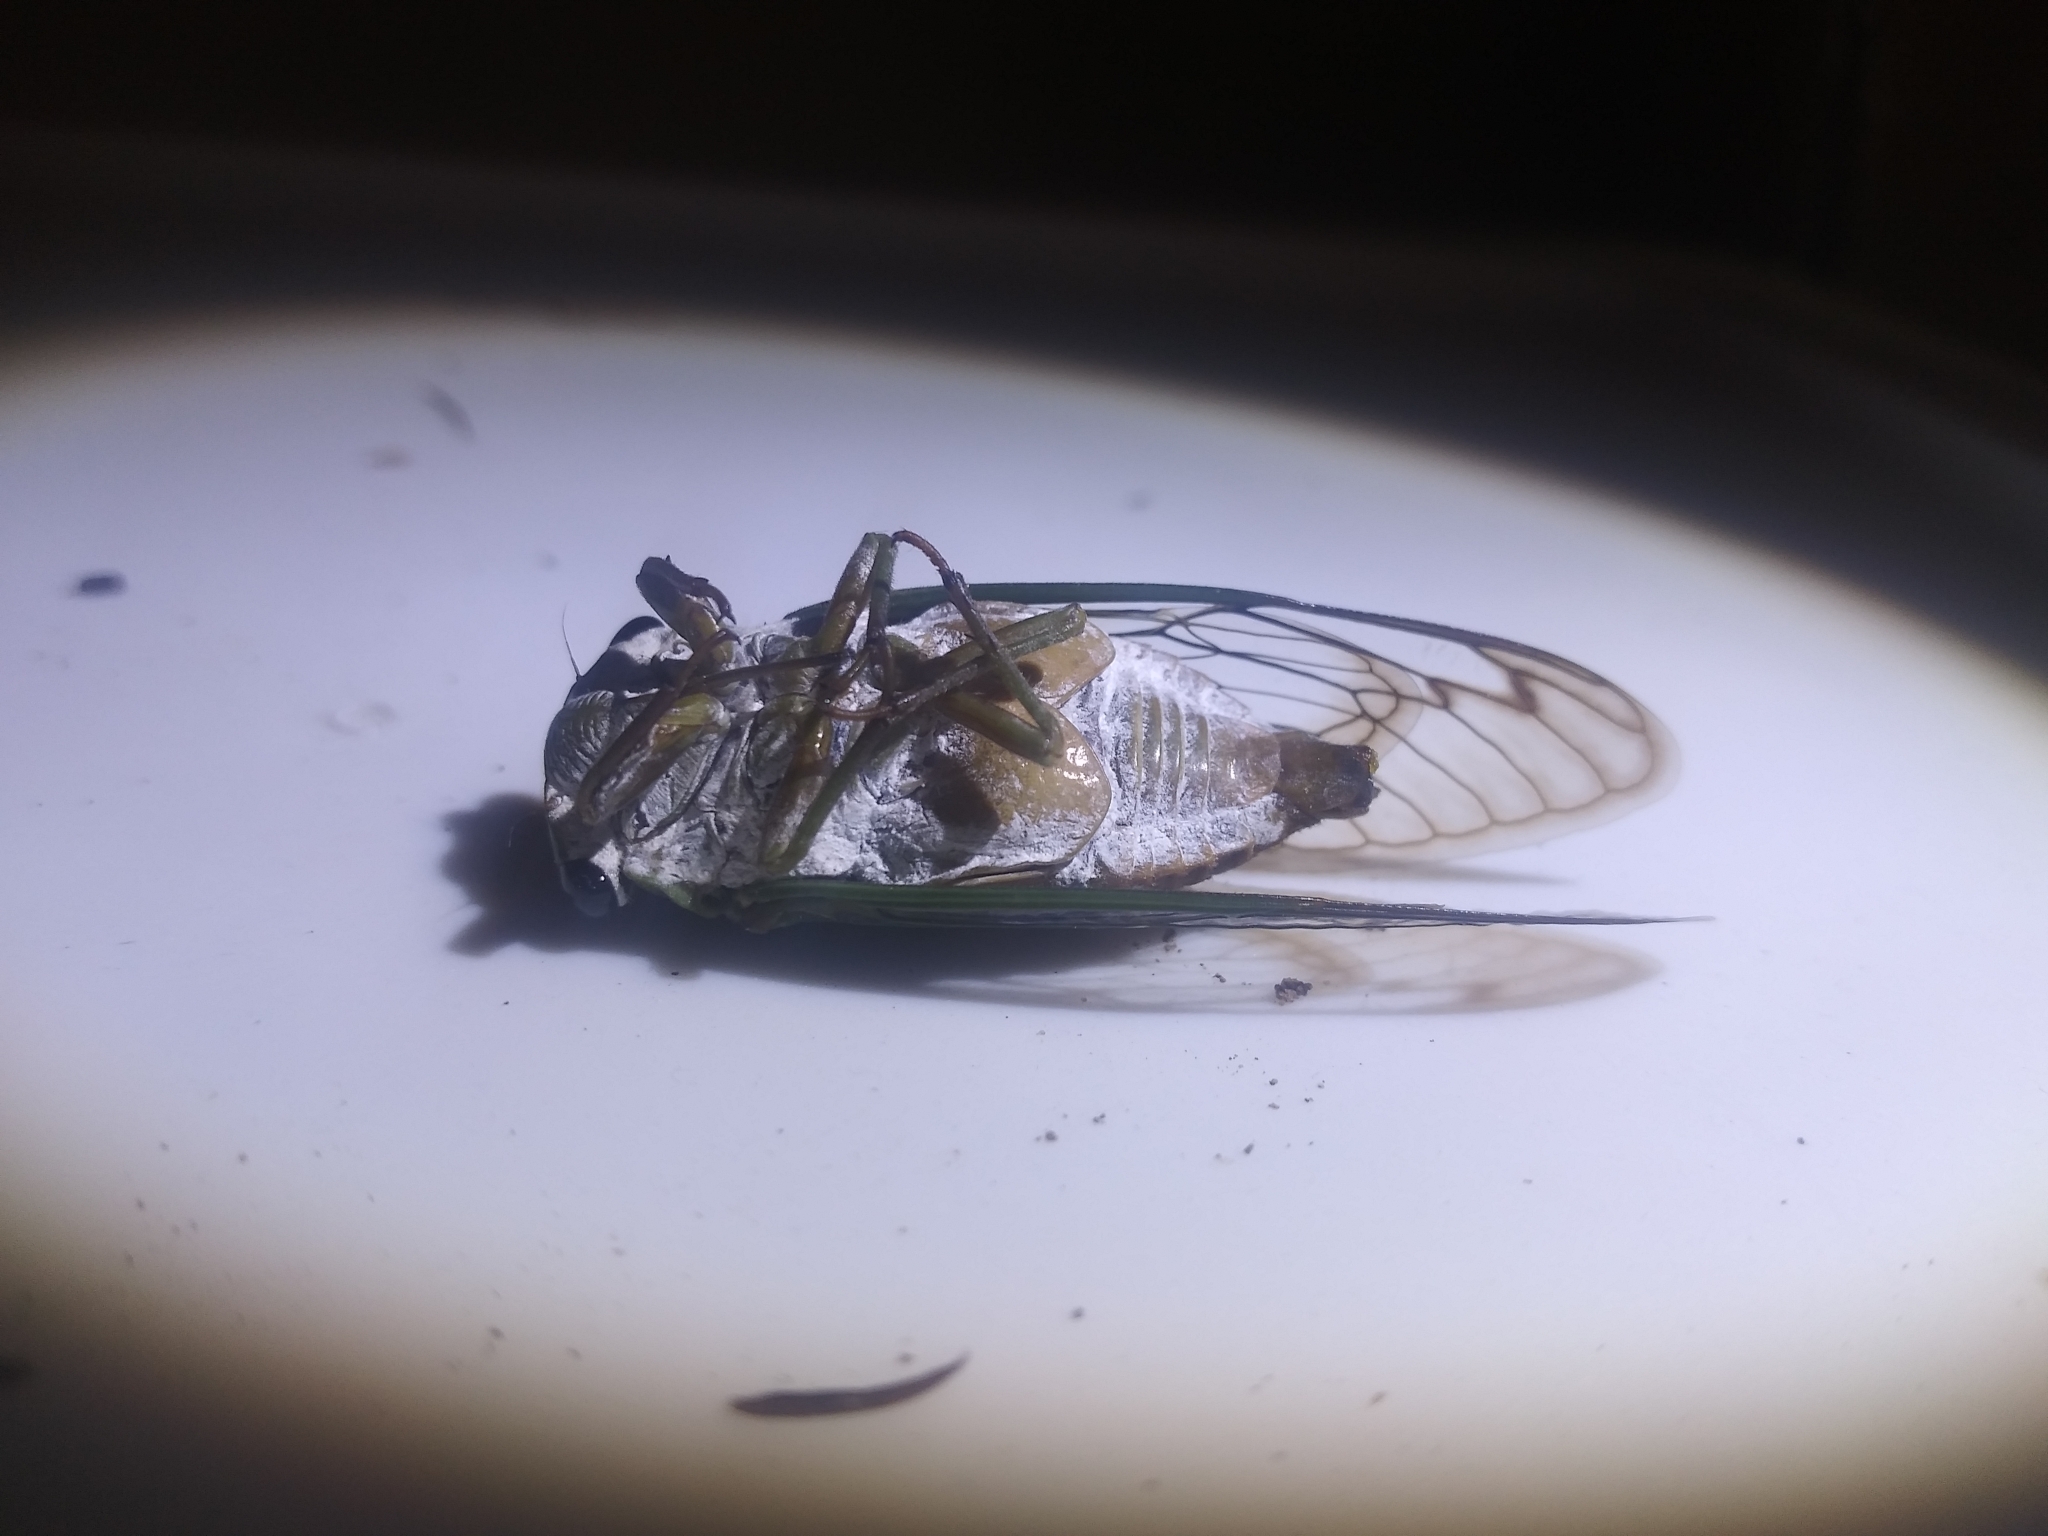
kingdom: Animalia
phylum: Arthropoda
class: Insecta
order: Hemiptera
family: Cicadidae
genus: Neotibicen
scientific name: Neotibicen superbus
